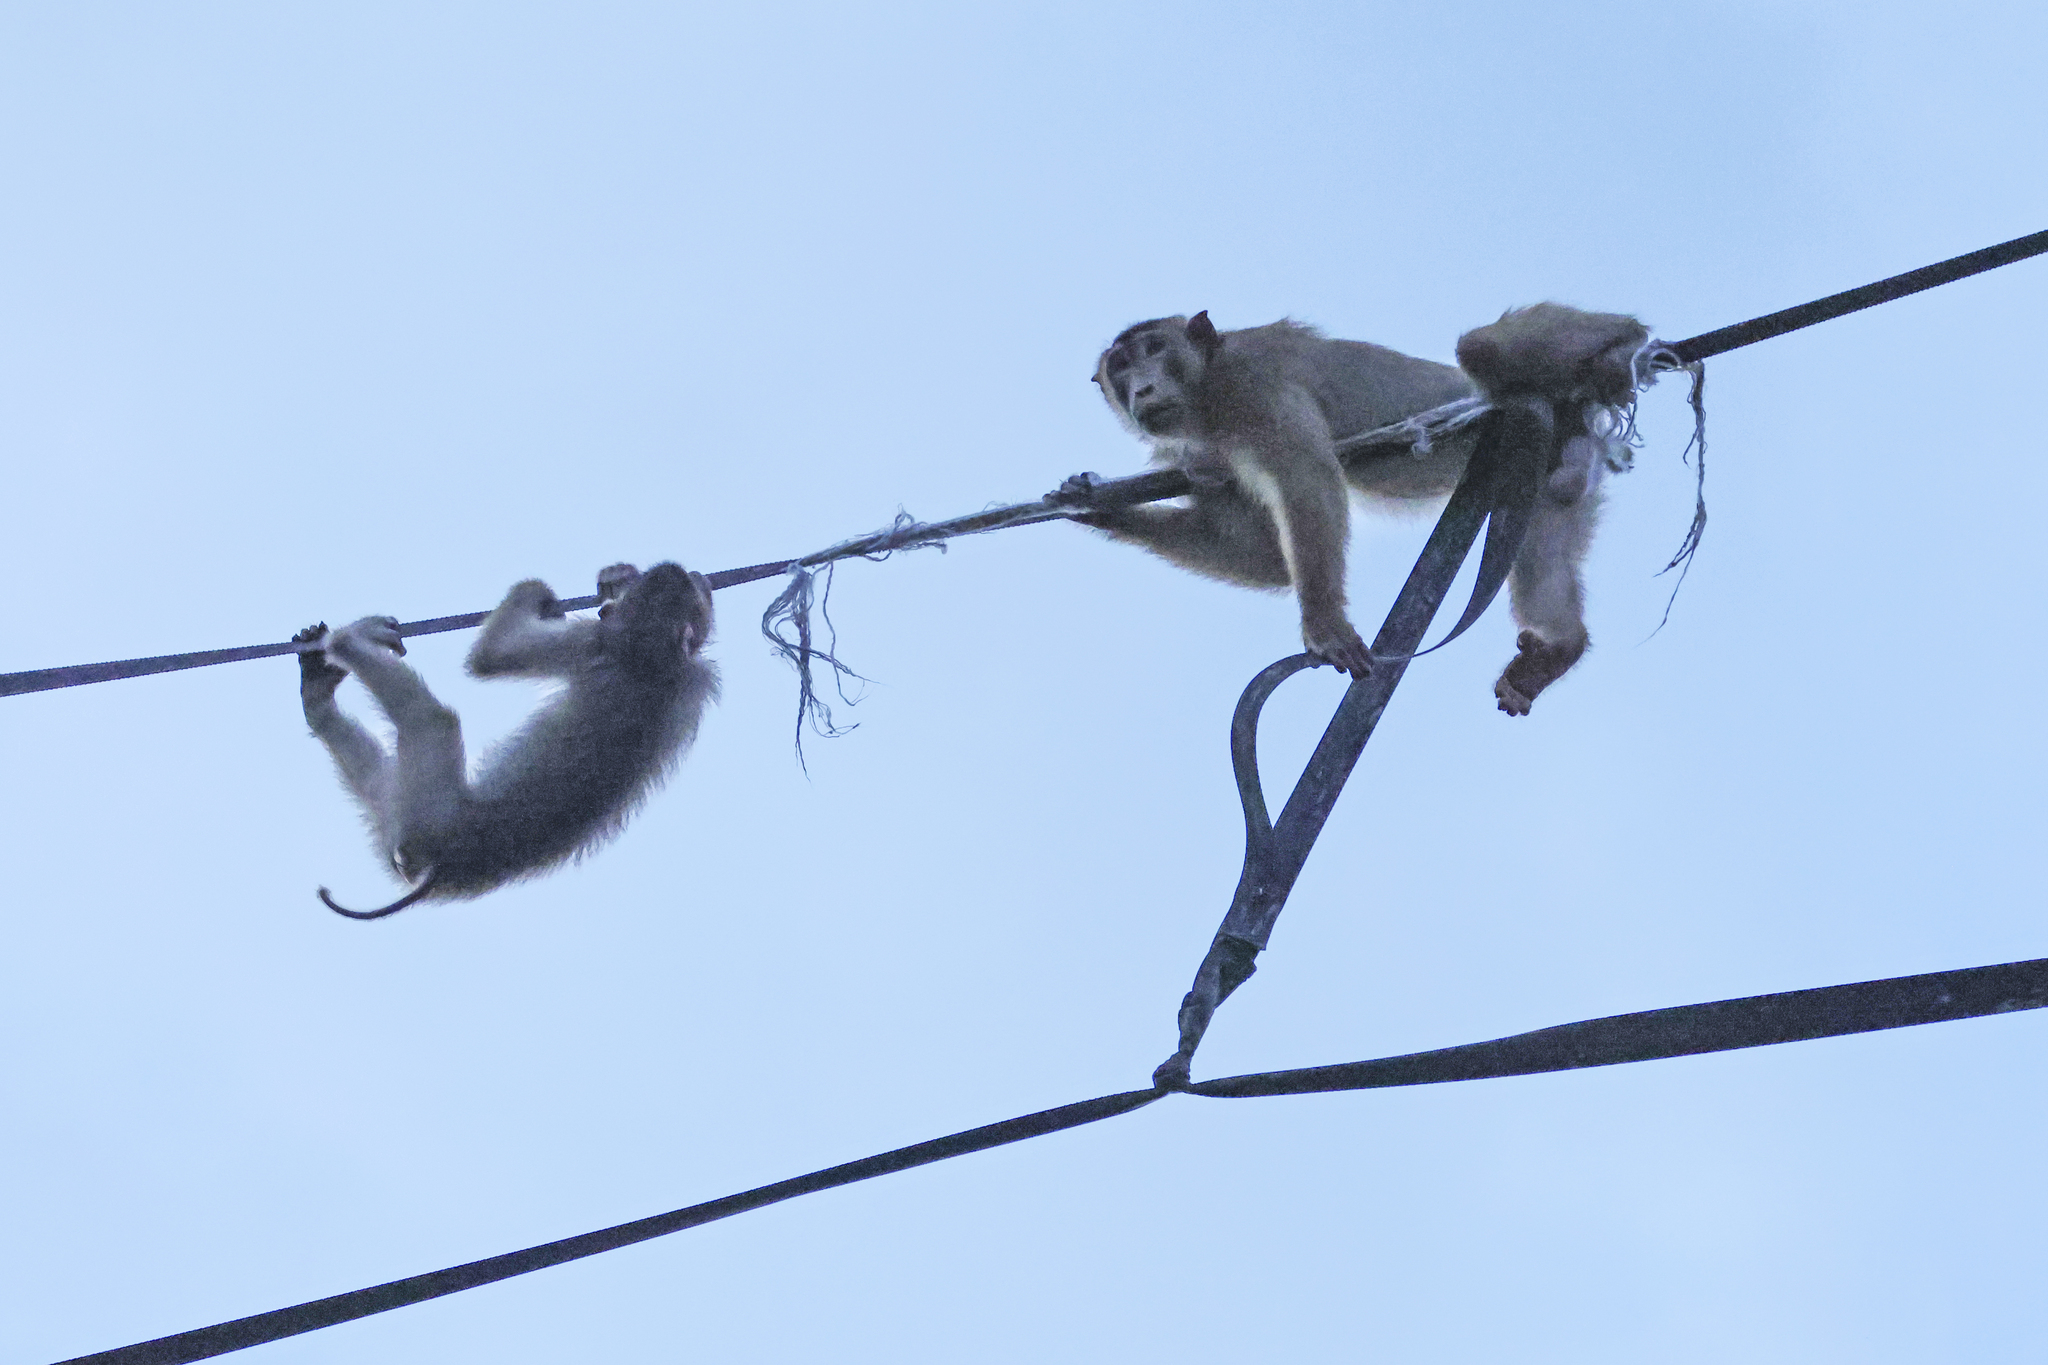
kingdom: Animalia
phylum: Chordata
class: Mammalia
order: Primates
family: Cercopithecidae
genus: Macaca
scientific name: Macaca nemestrina
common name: Southern pig-tailed macaque
